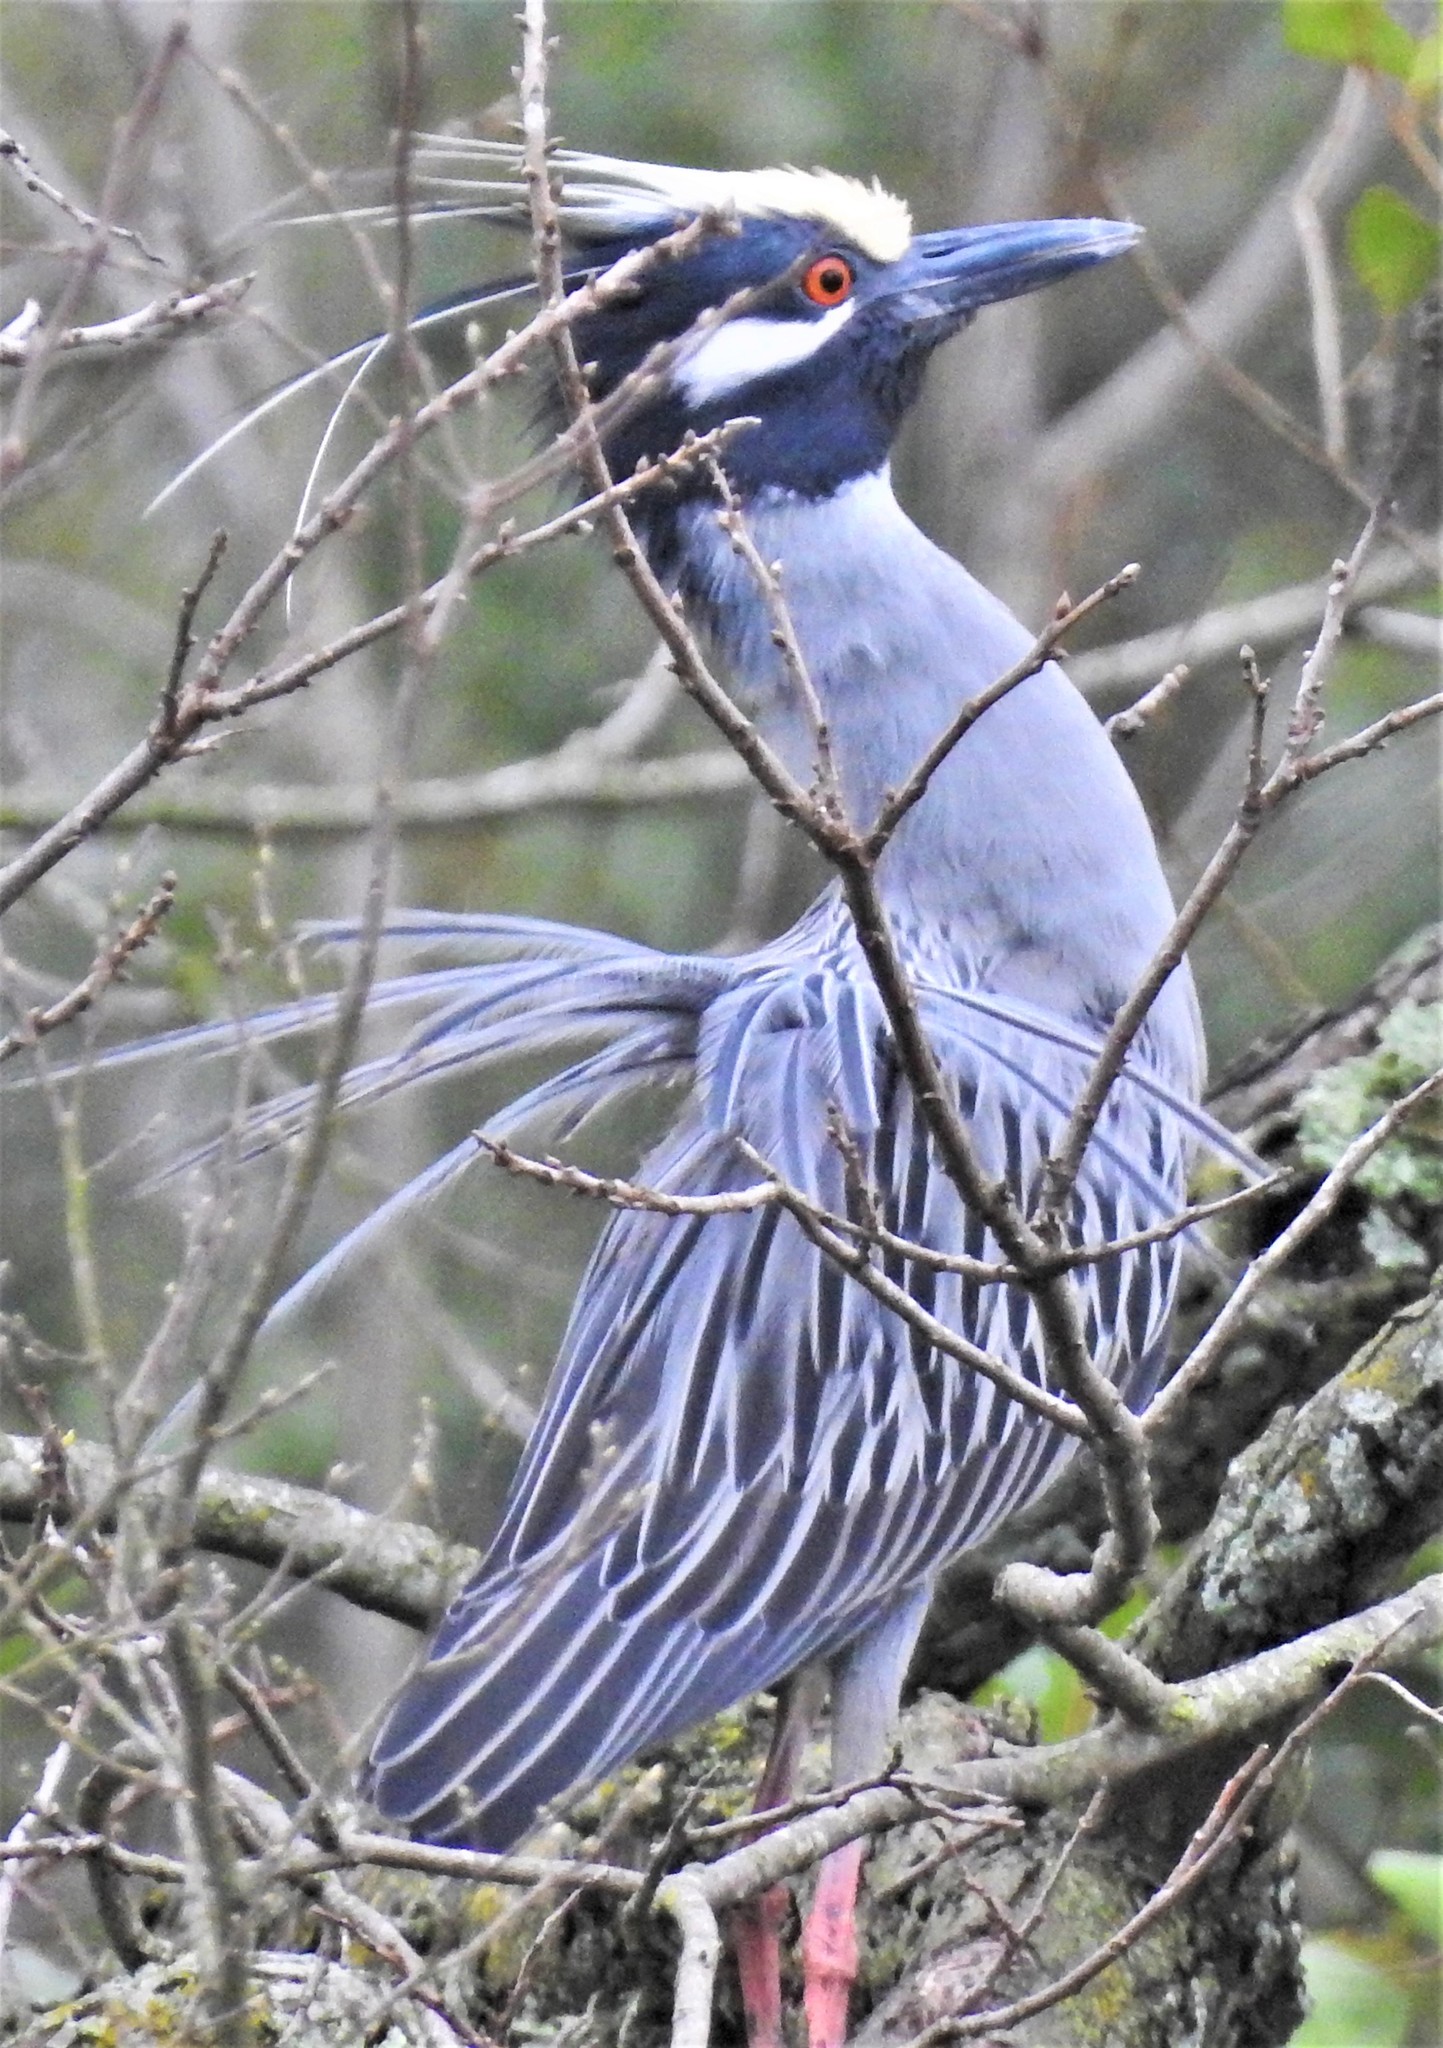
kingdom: Animalia
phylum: Chordata
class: Aves
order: Pelecaniformes
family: Ardeidae
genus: Nyctanassa
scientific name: Nyctanassa violacea
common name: Yellow-crowned night heron
